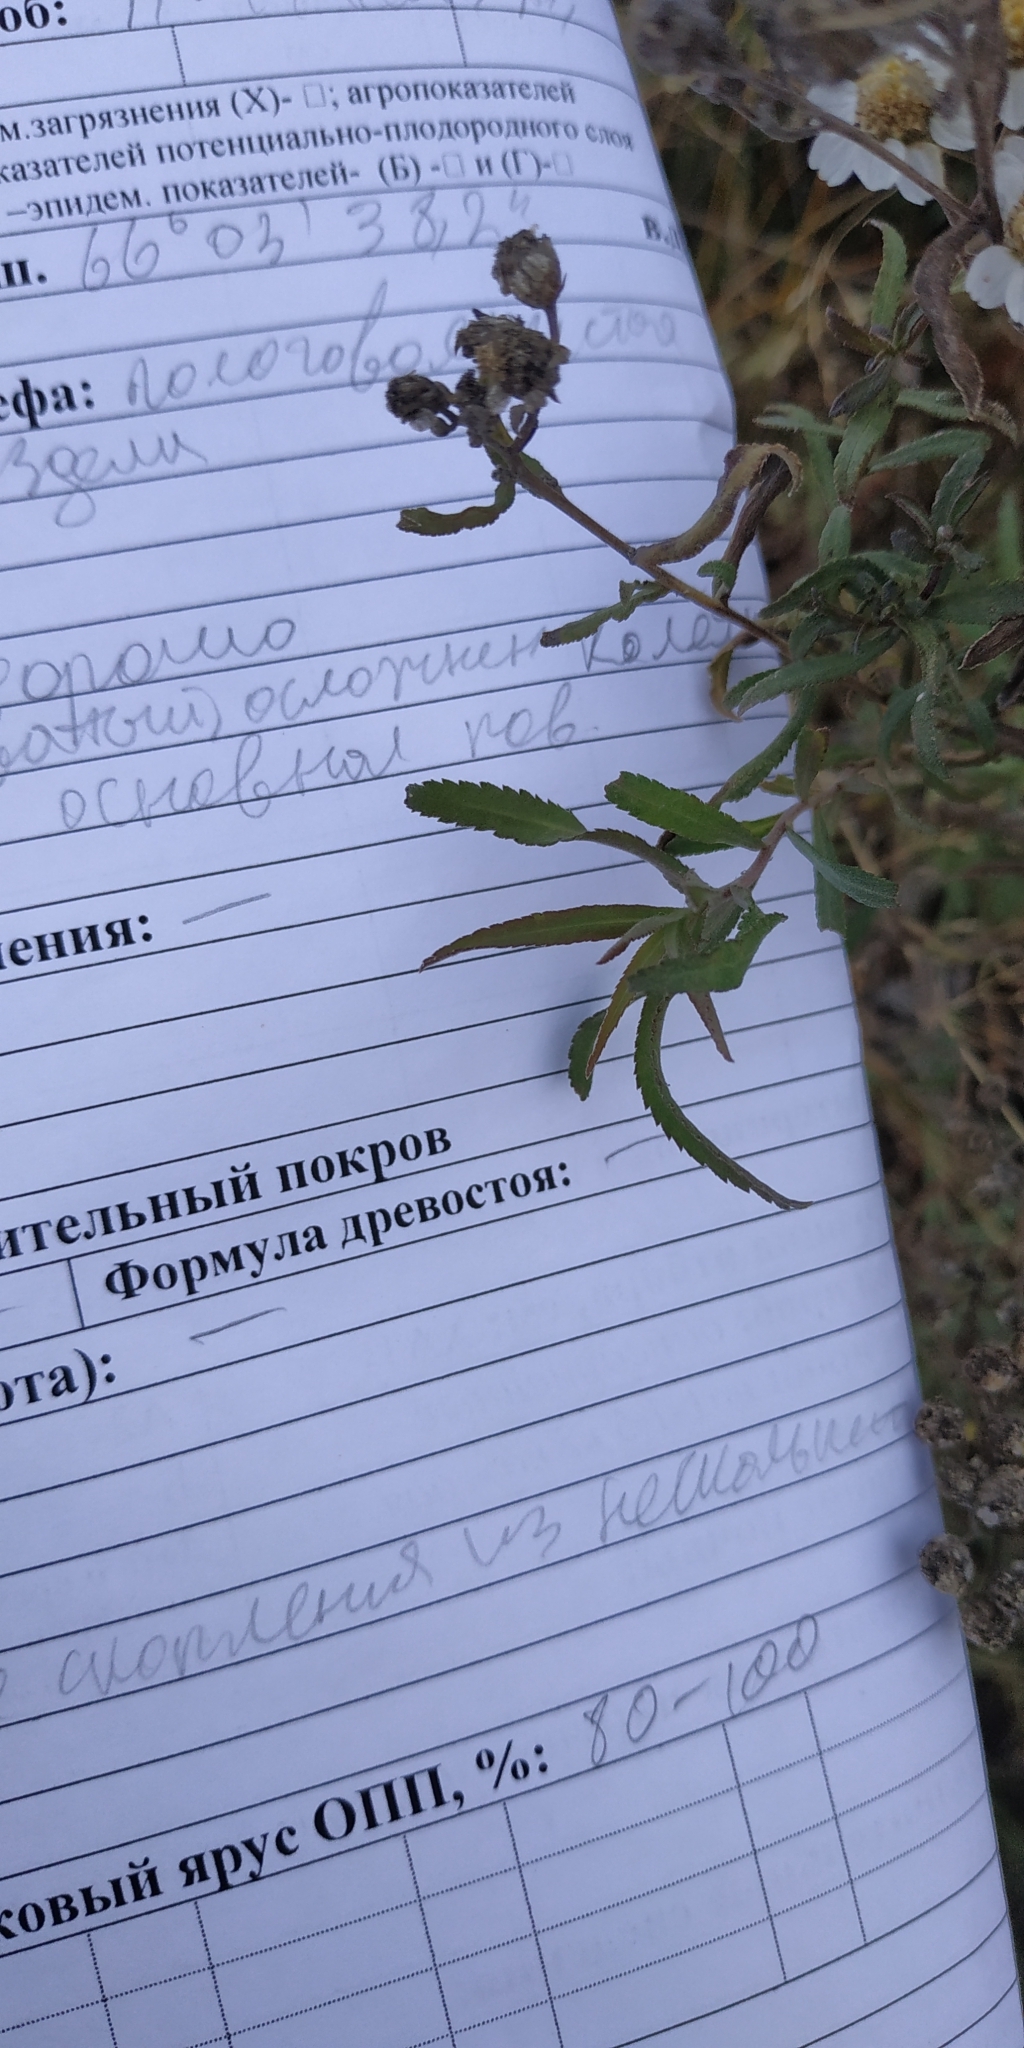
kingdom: Plantae
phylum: Tracheophyta
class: Magnoliopsida
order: Asterales
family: Asteraceae
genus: Achillea
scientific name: Achillea salicifolia
